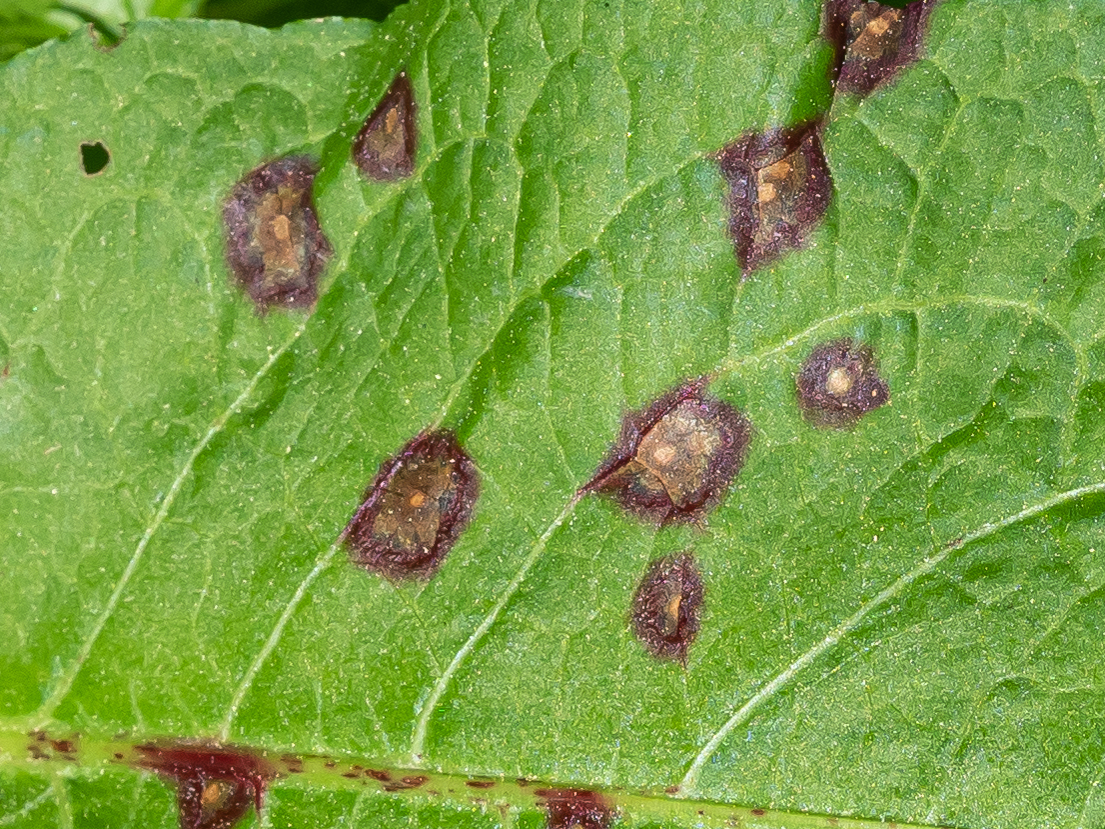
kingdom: Fungi
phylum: Ascomycota
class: Dothideomycetes
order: Mycosphaerellales
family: Mycosphaerellaceae
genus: Ramularia
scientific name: Ramularia rubella
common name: Red dock spot
